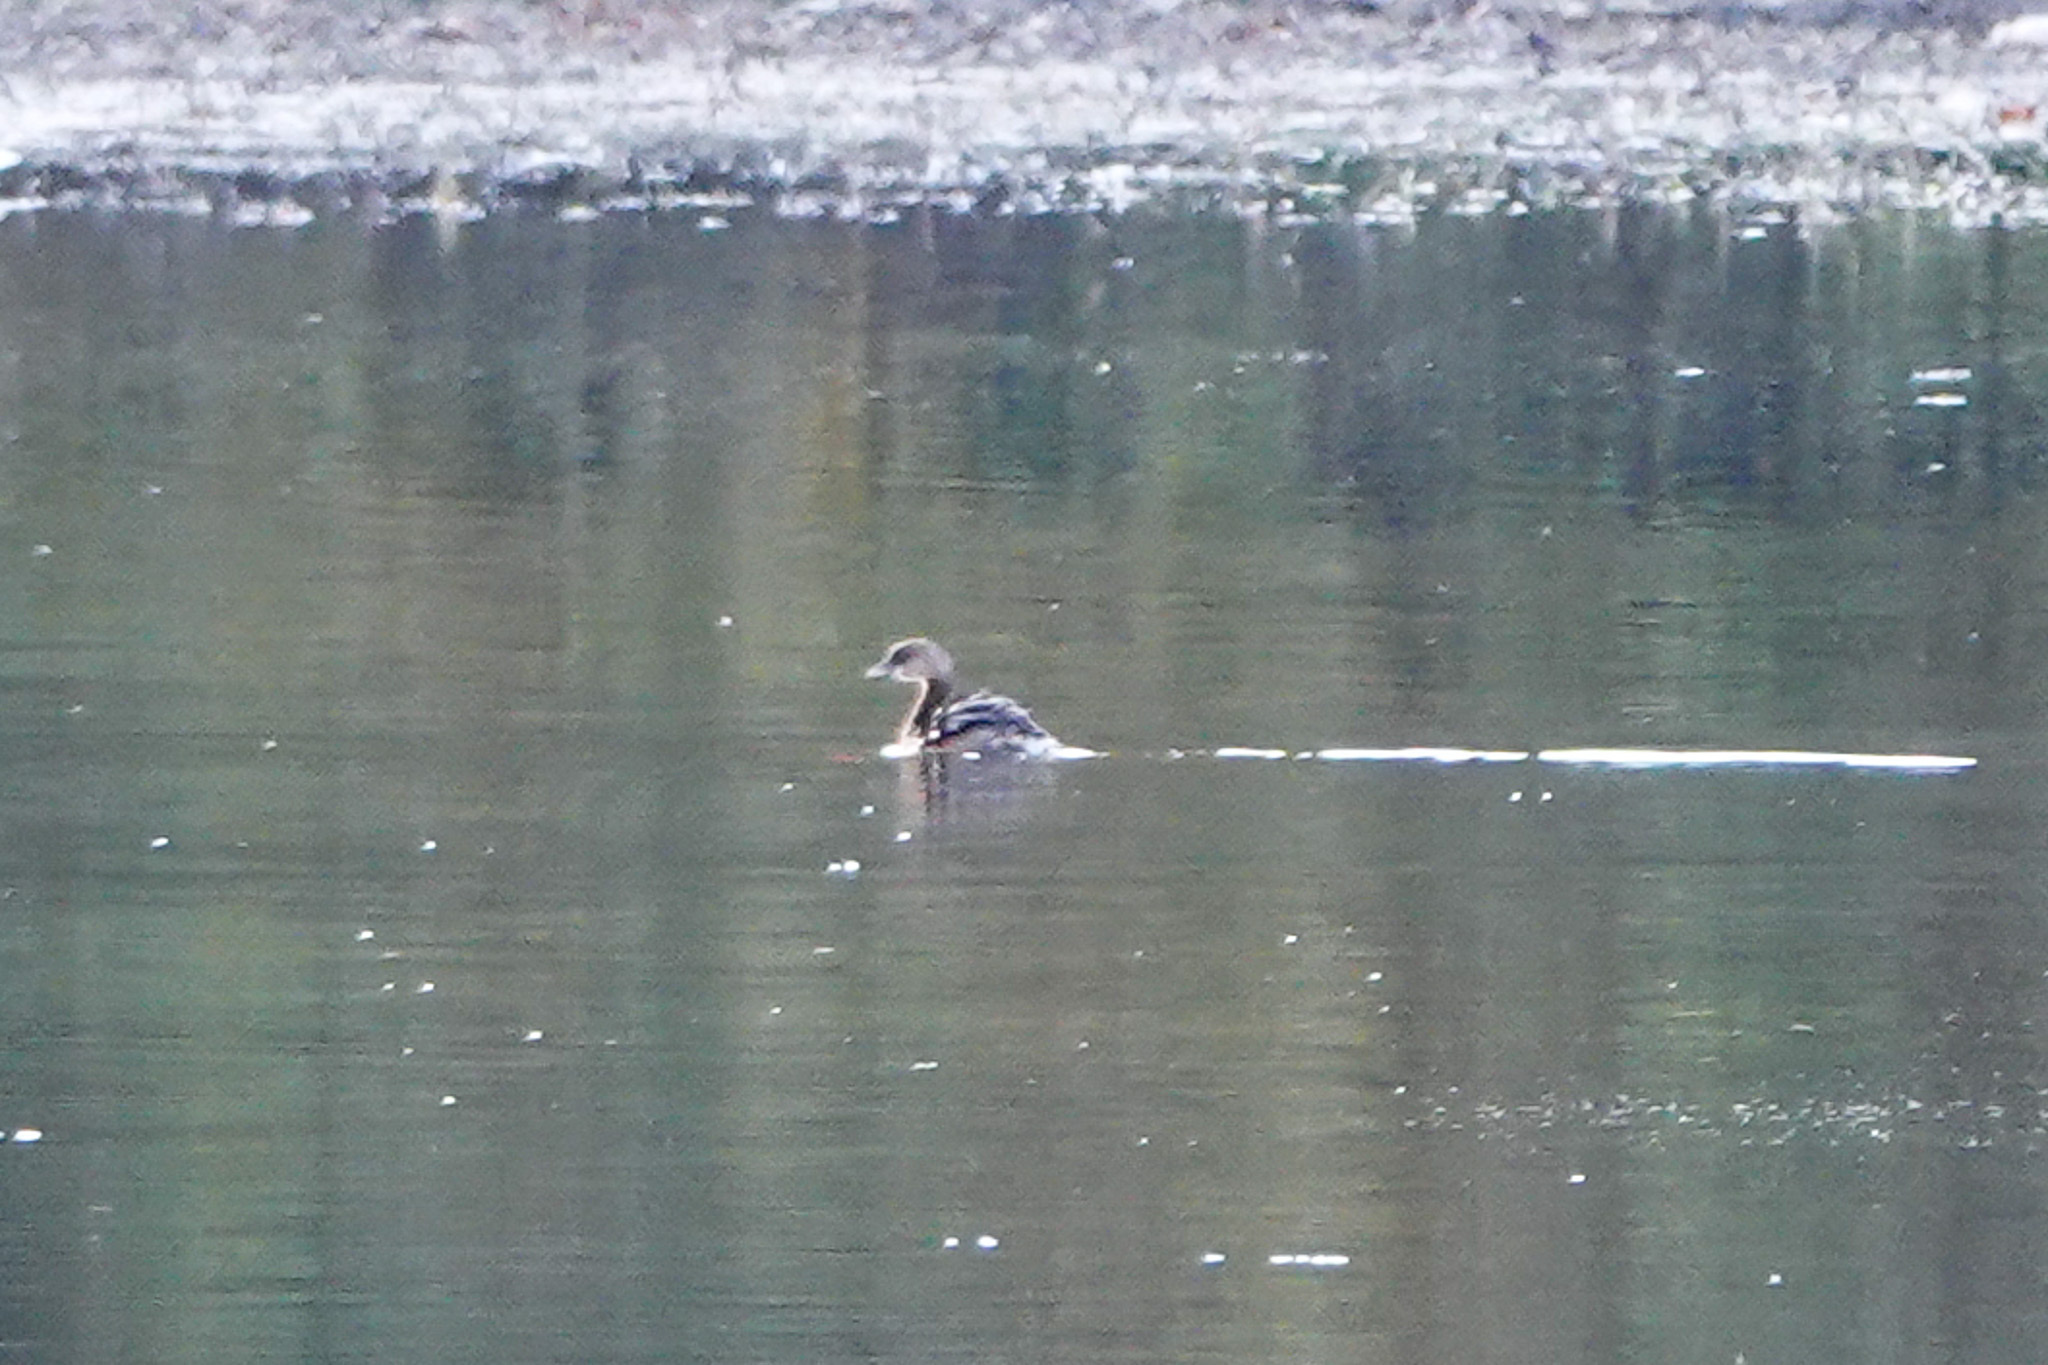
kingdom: Animalia
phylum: Chordata
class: Aves
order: Podicipediformes
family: Podicipedidae
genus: Podilymbus
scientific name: Podilymbus podiceps
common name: Pied-billed grebe
